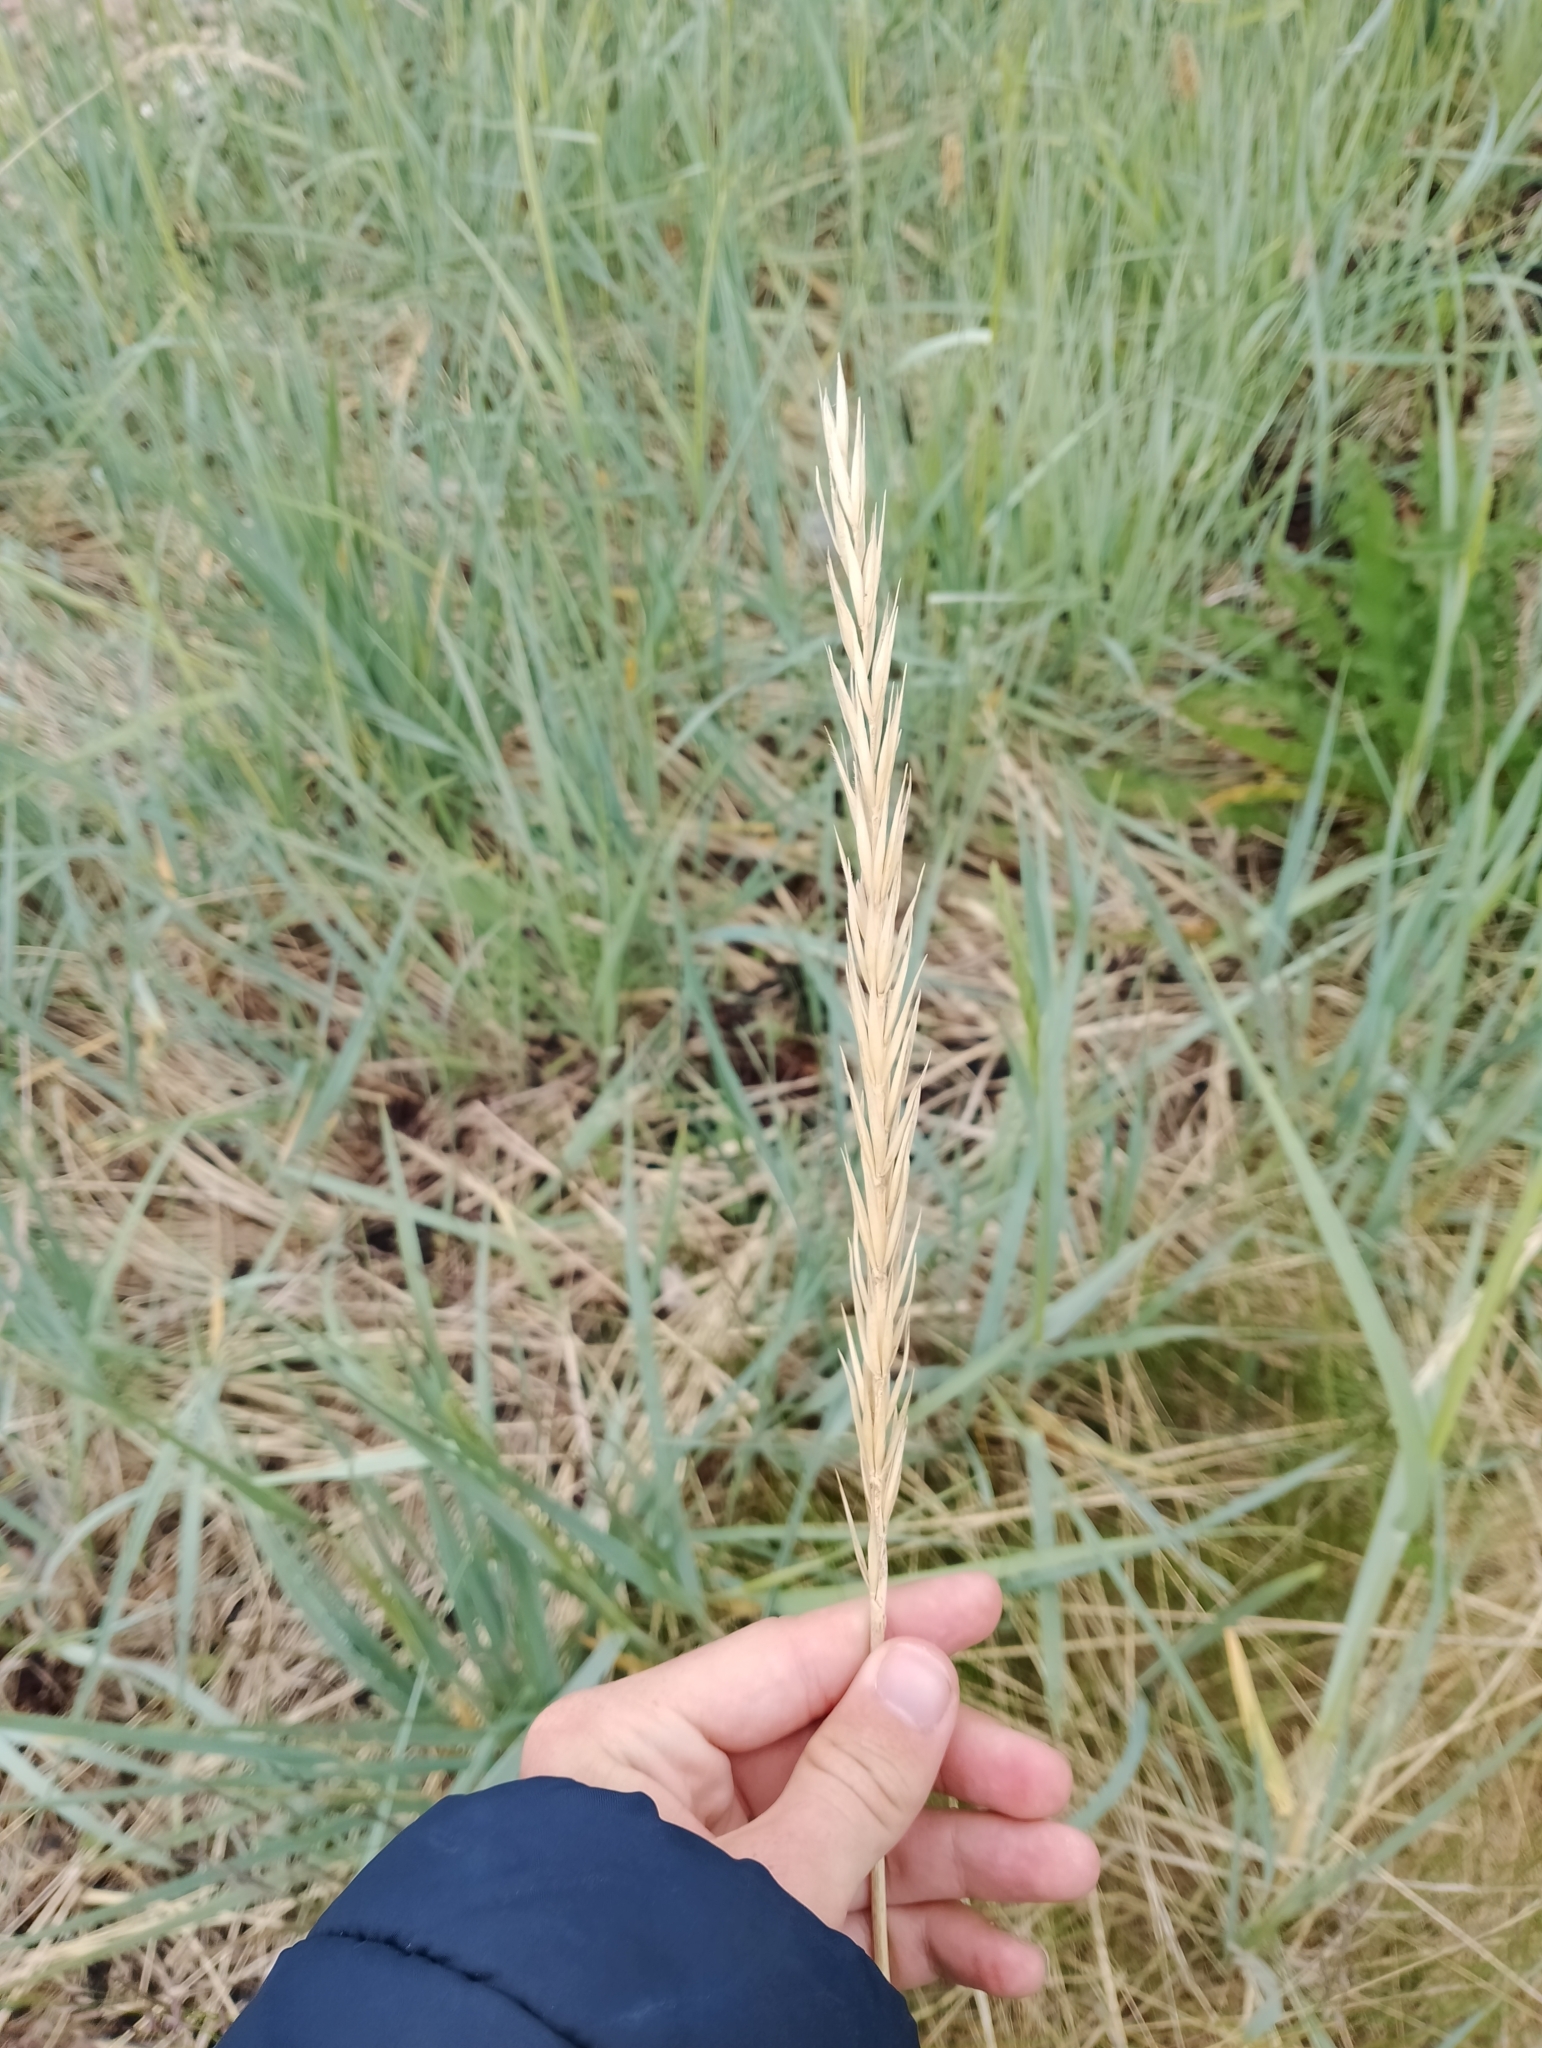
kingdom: Plantae
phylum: Tracheophyta
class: Liliopsida
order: Poales
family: Poaceae
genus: Leymus
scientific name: Leymus arenarius
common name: Lyme-grass
